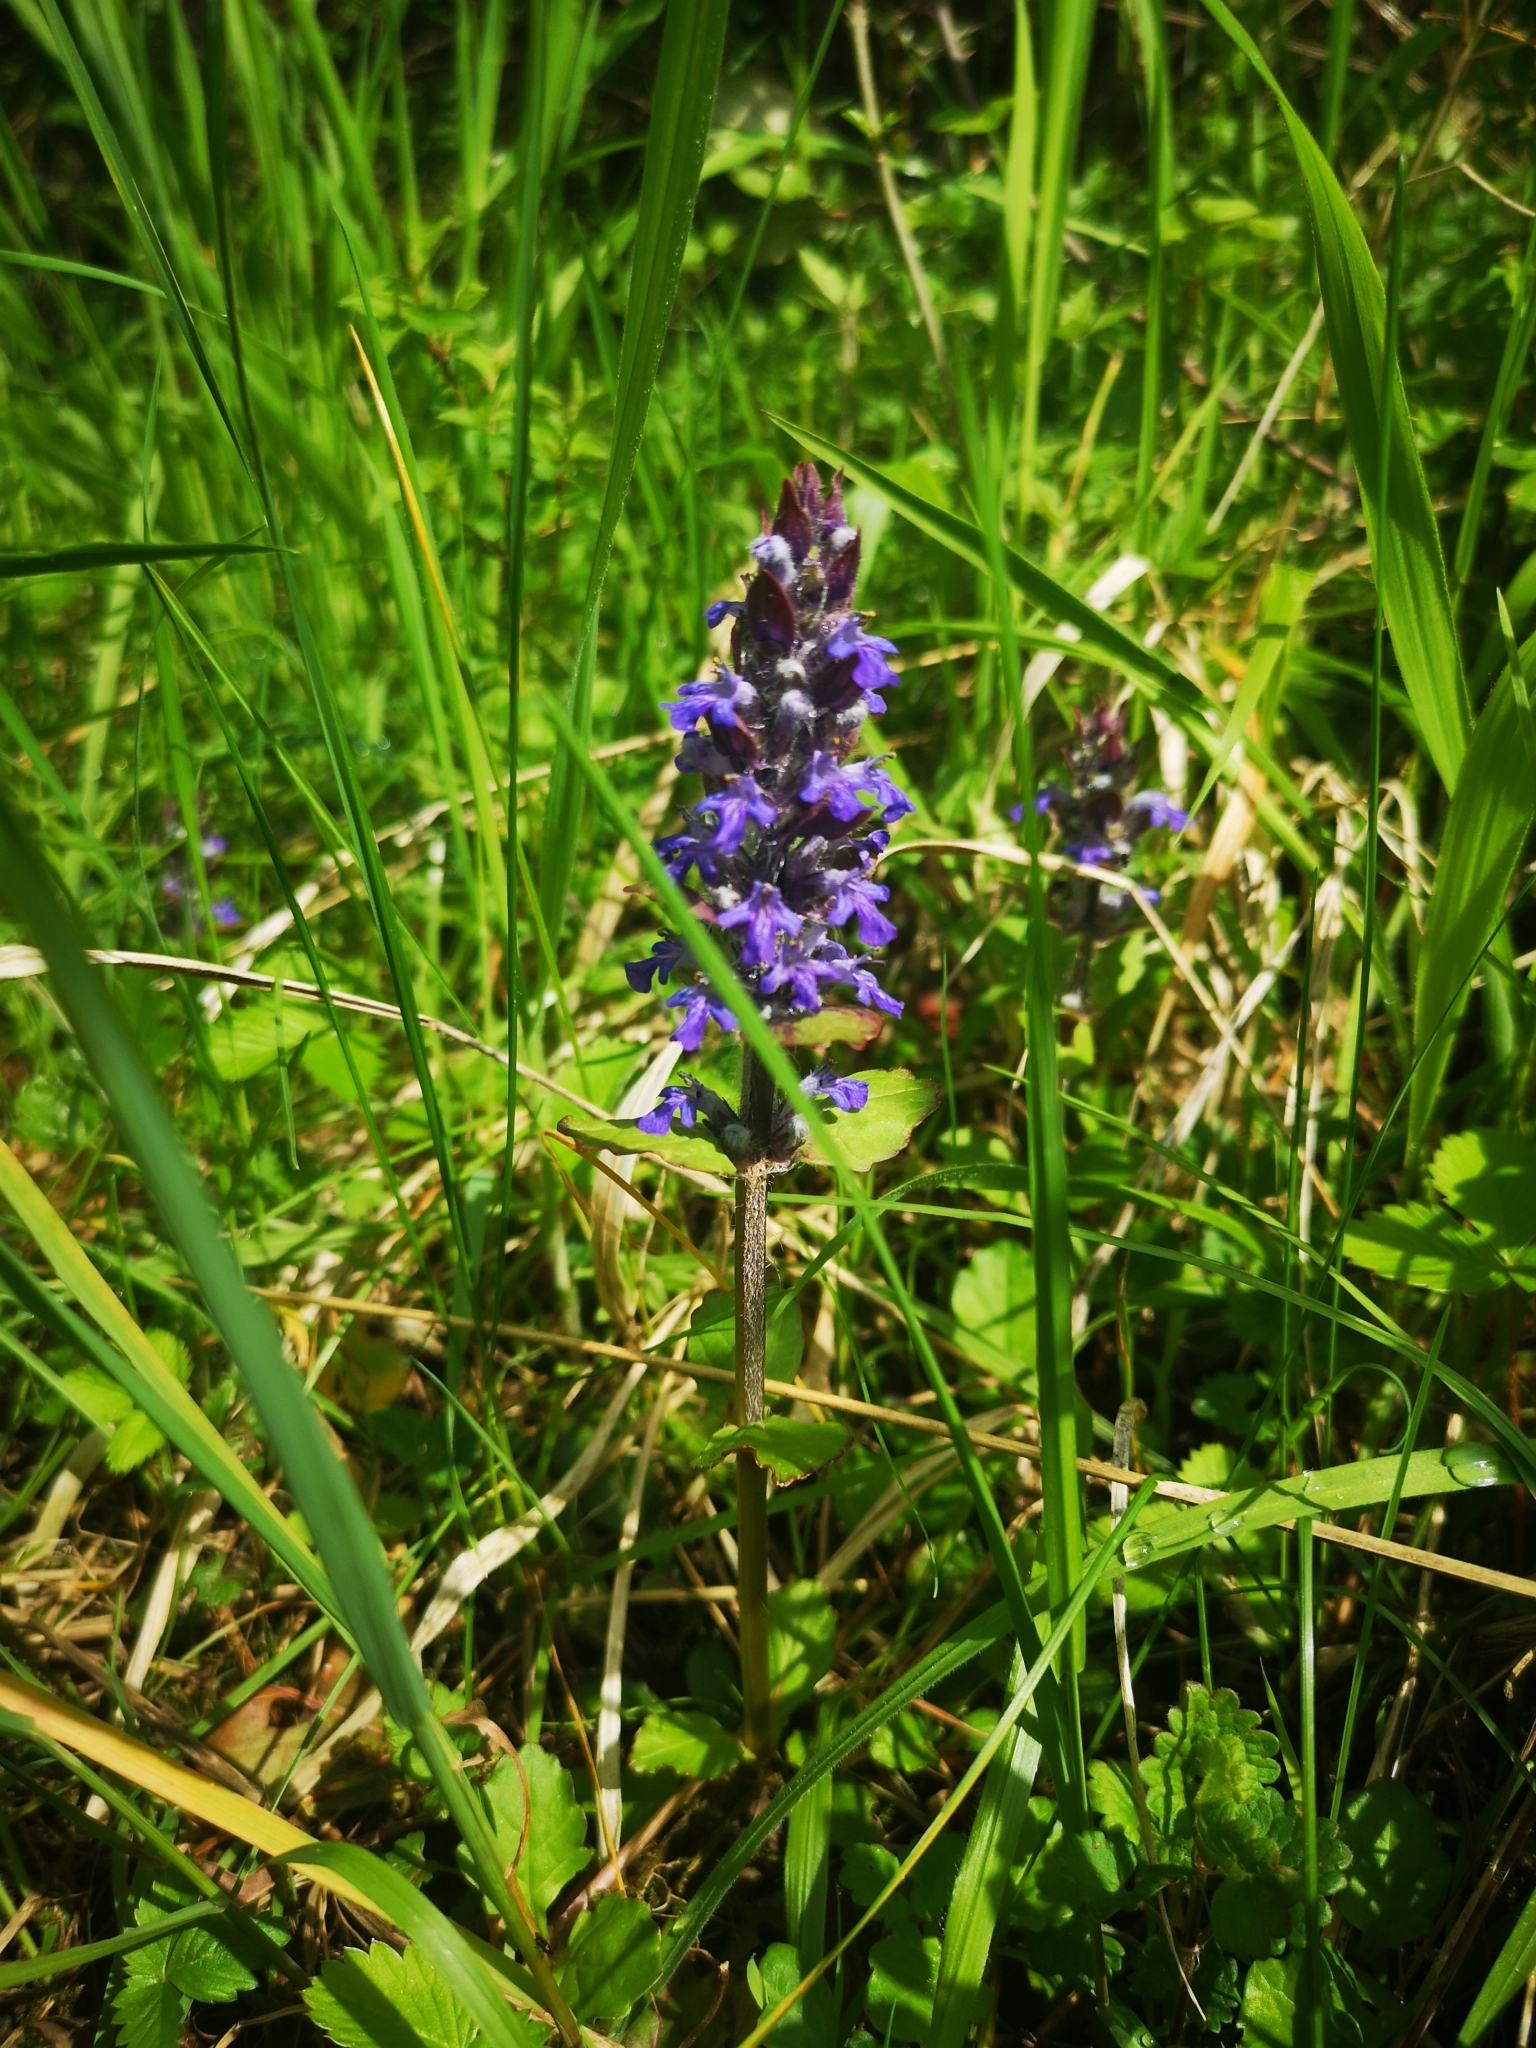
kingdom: Plantae
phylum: Tracheophyta
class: Magnoliopsida
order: Lamiales
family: Lamiaceae
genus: Ajuga
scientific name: Ajuga reptans
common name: Bugle
